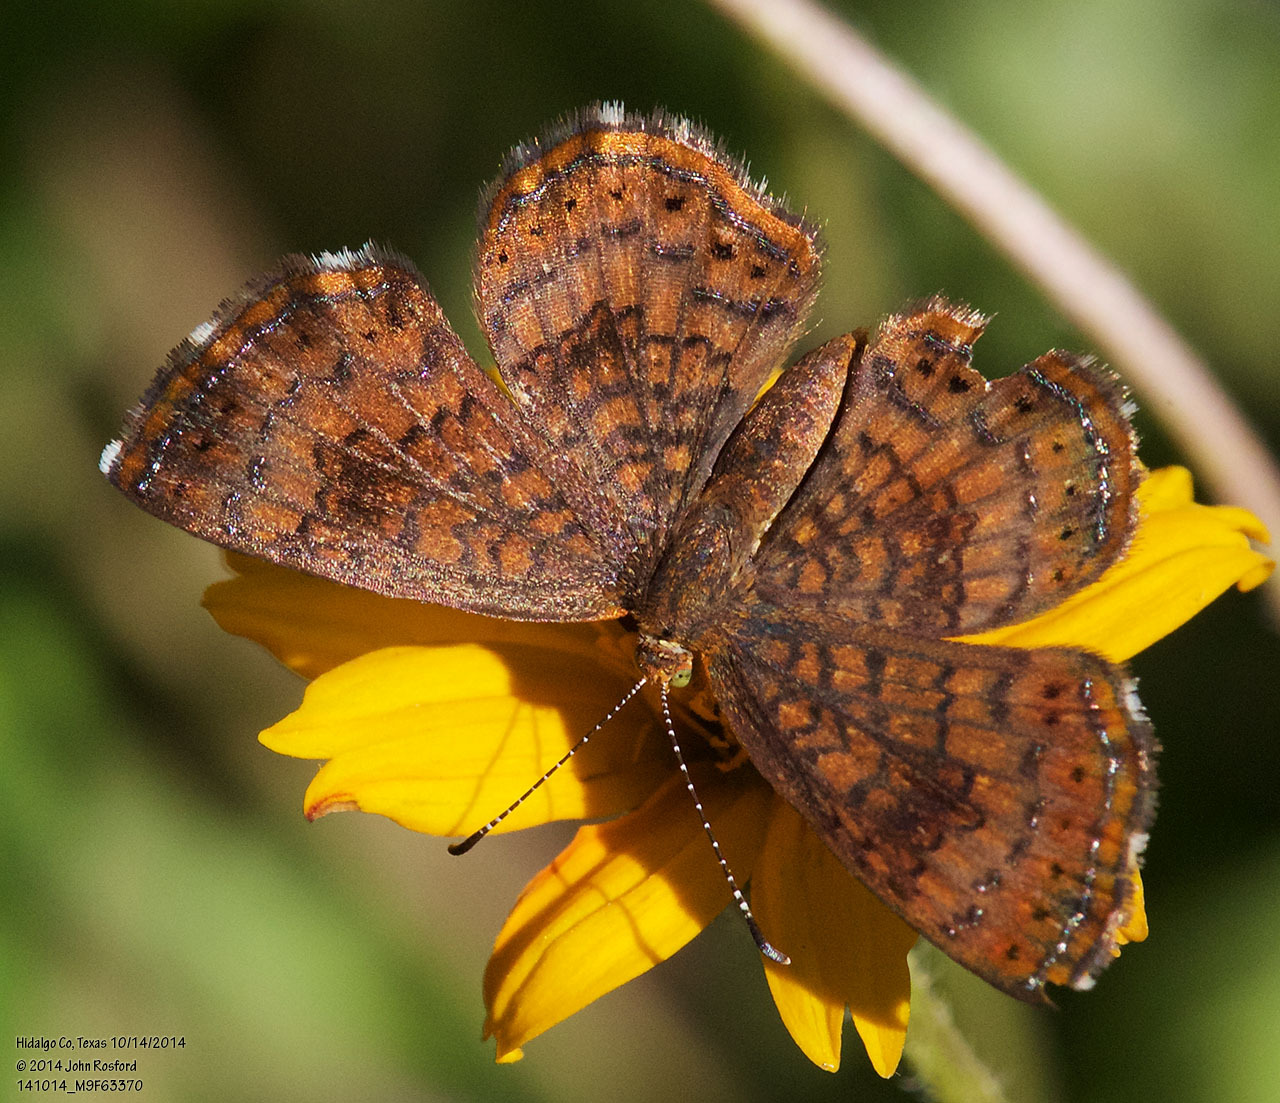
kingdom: Animalia
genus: Calephelis
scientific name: Calephelis nemesis
